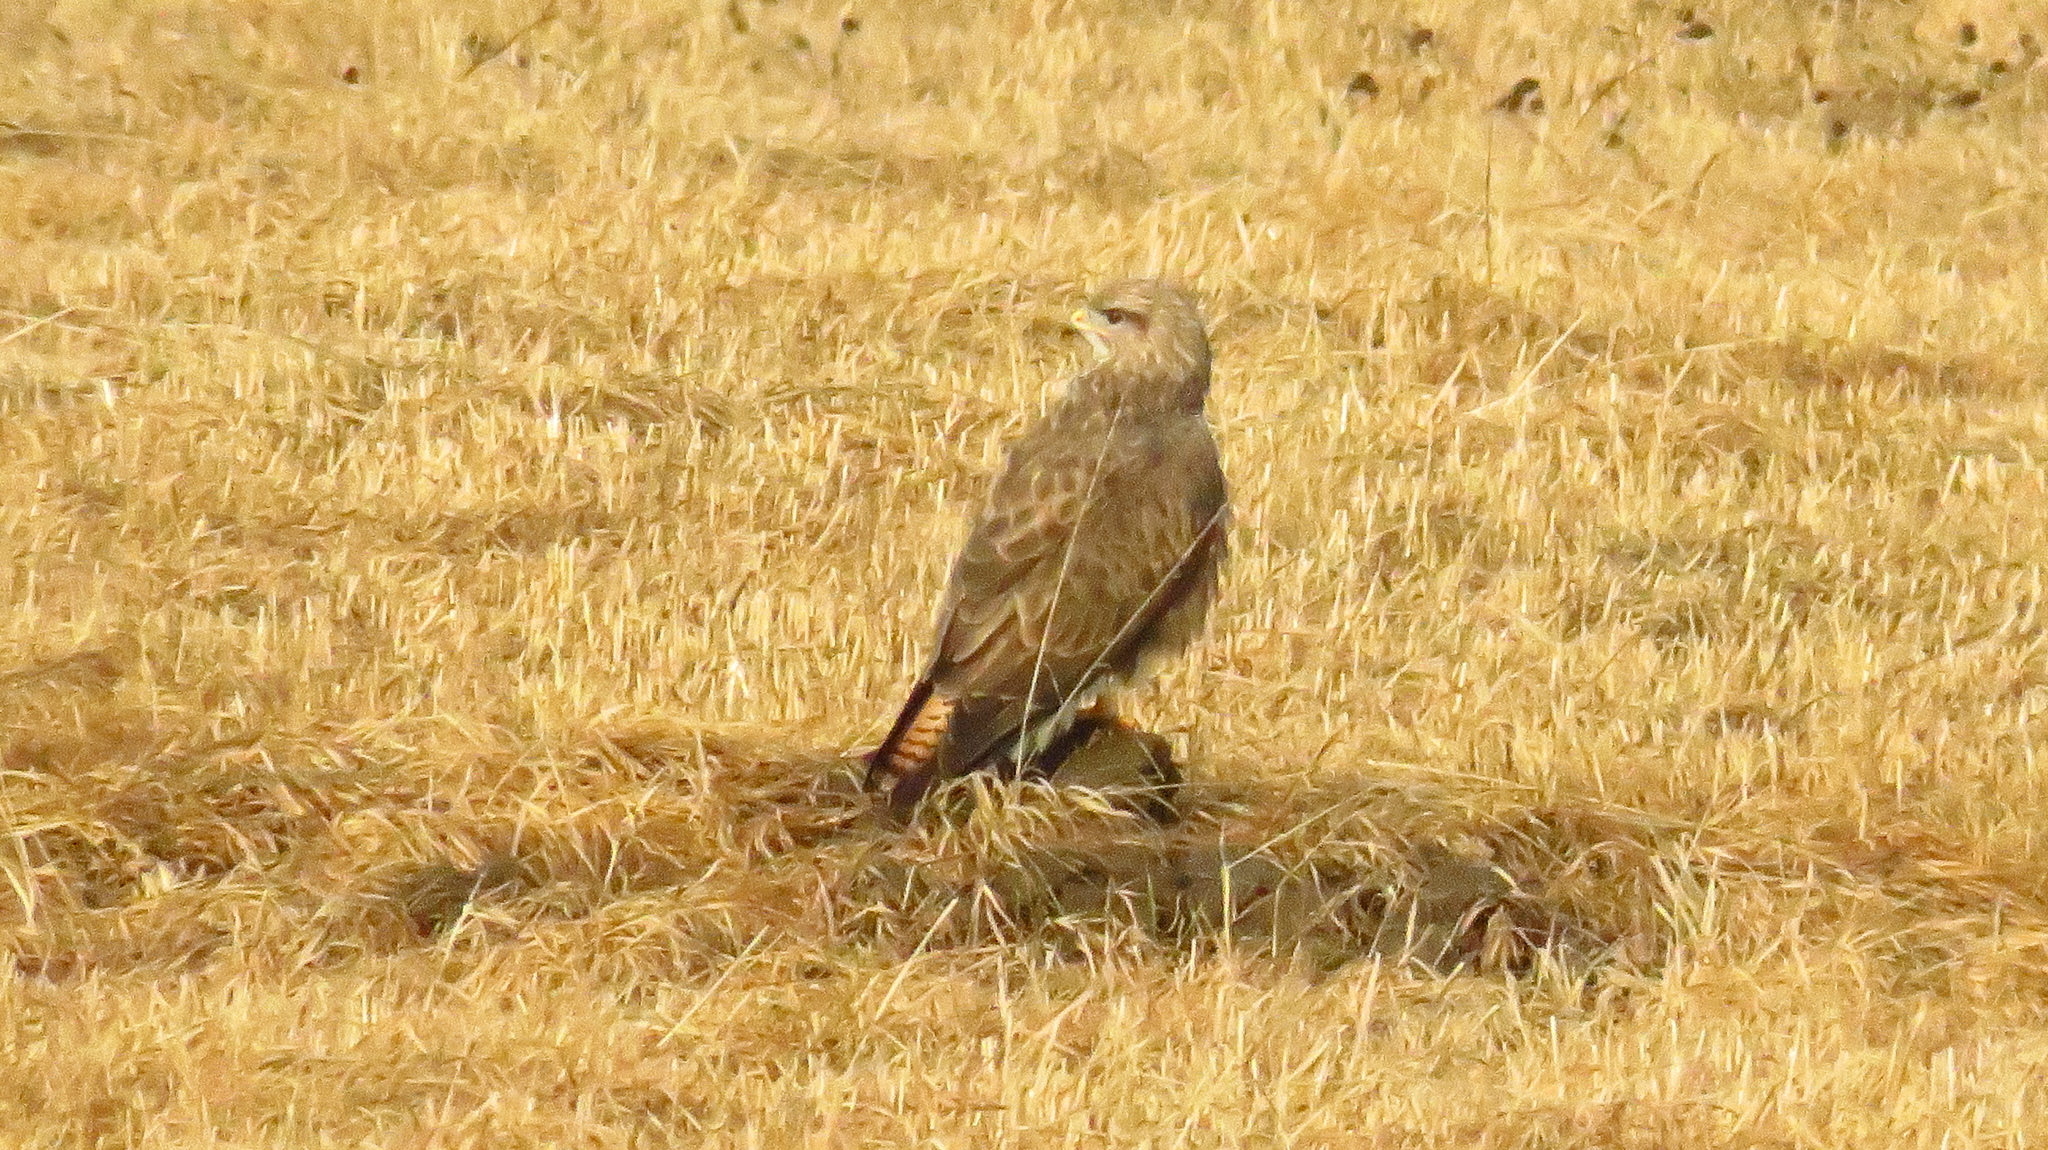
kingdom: Animalia
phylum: Chordata
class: Aves
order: Accipitriformes
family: Accipitridae
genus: Buteo
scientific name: Buteo buteo
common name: Common buzzard
